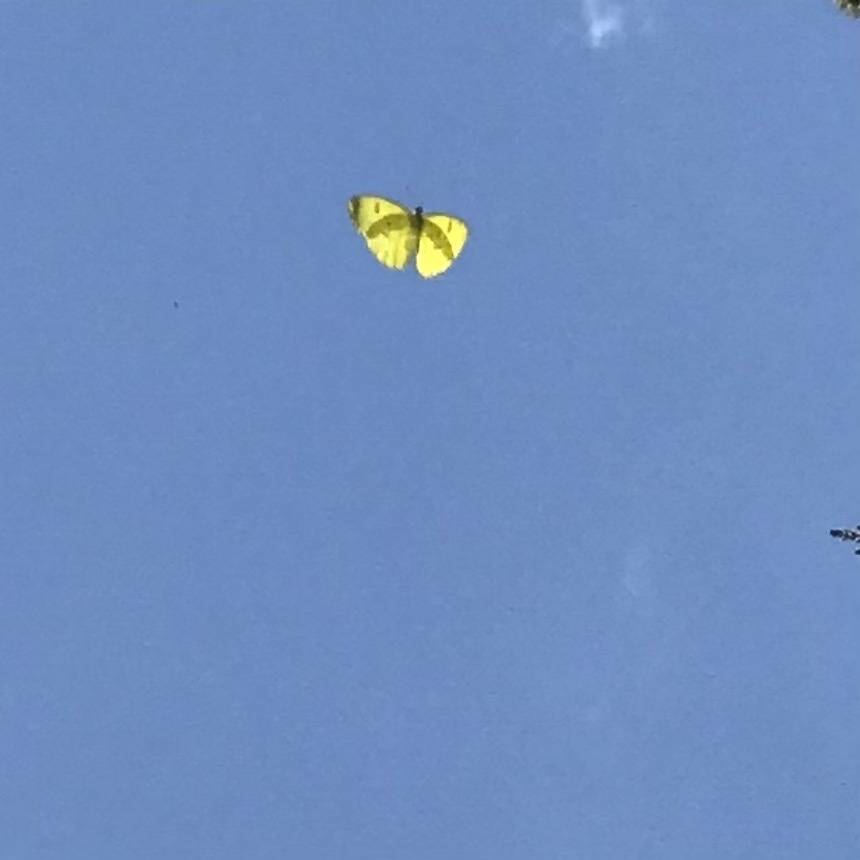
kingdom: Animalia
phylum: Arthropoda
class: Insecta
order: Lepidoptera
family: Pieridae
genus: Phoebis
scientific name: Phoebis sennae
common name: Cloudless sulphur
